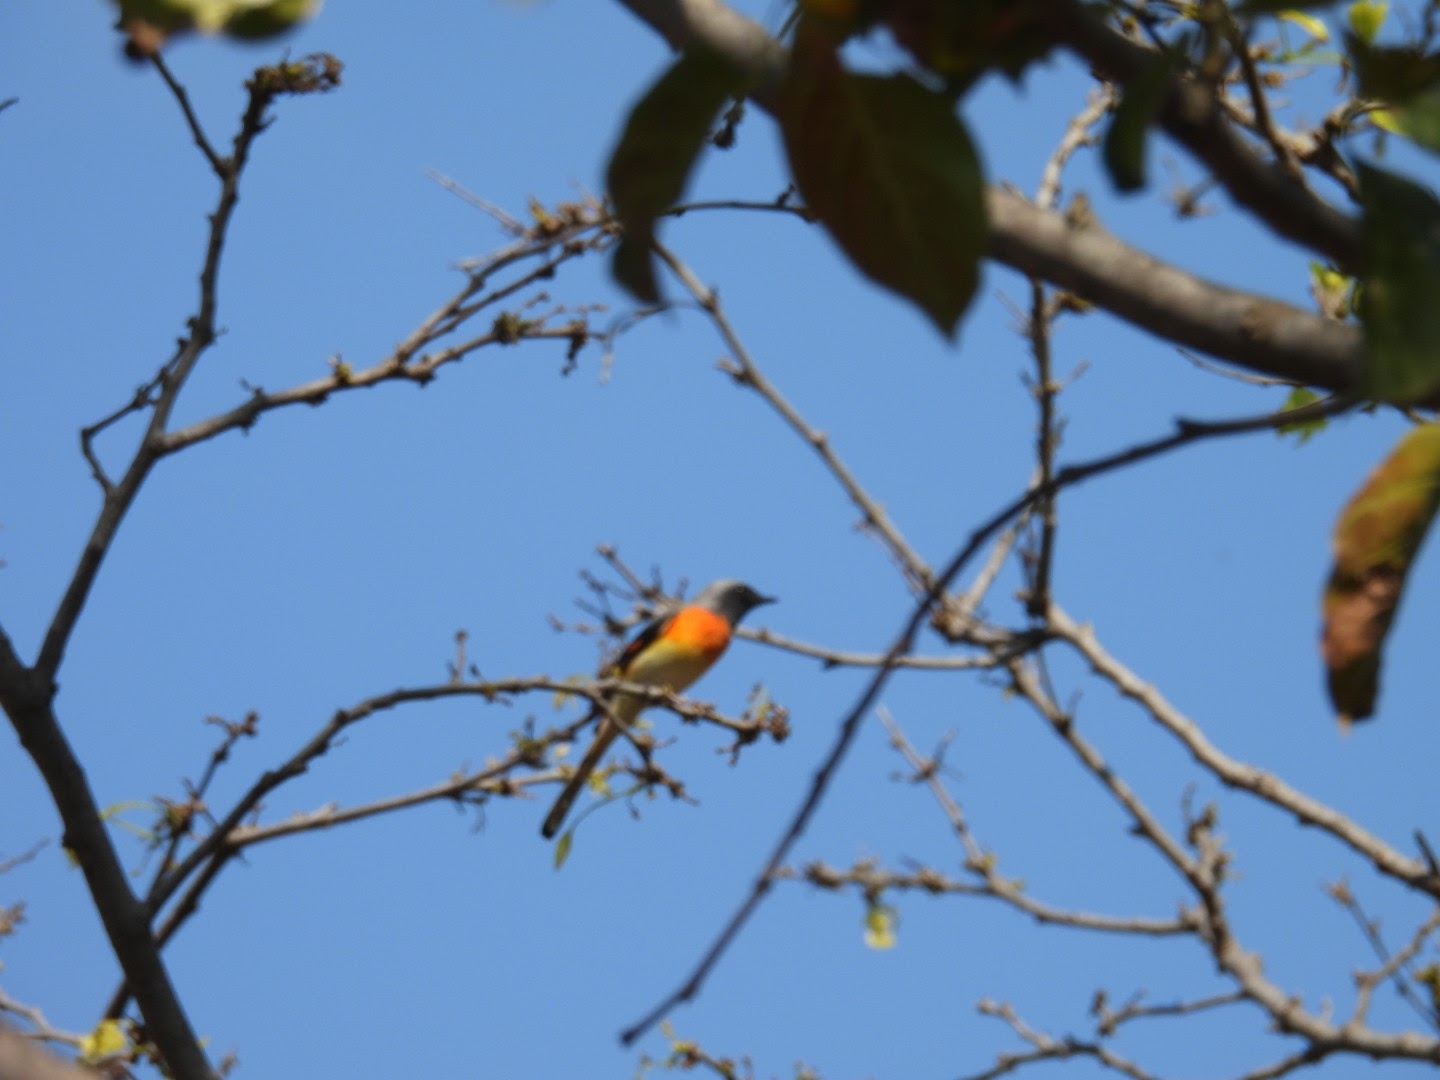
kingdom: Animalia
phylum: Chordata
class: Aves
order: Passeriformes
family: Campephagidae
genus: Pericrocotus
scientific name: Pericrocotus cinnamomeus
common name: Small minivet
